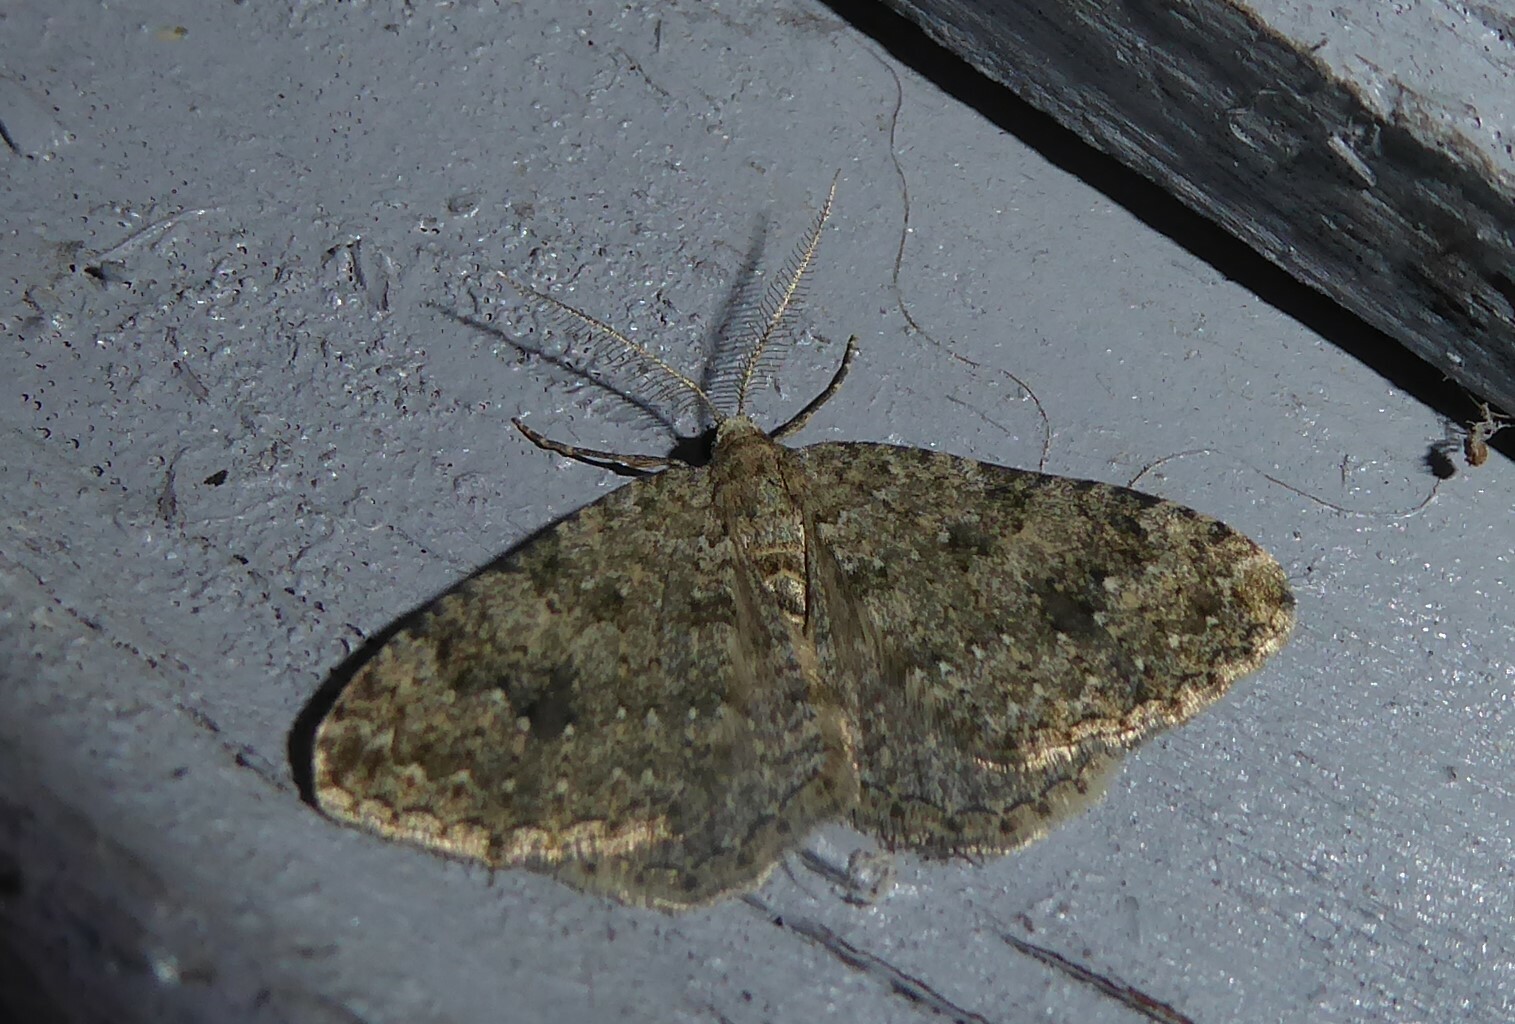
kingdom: Animalia
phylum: Arthropoda
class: Insecta
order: Lepidoptera
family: Geometridae
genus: Helastia
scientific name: Helastia corcularia
